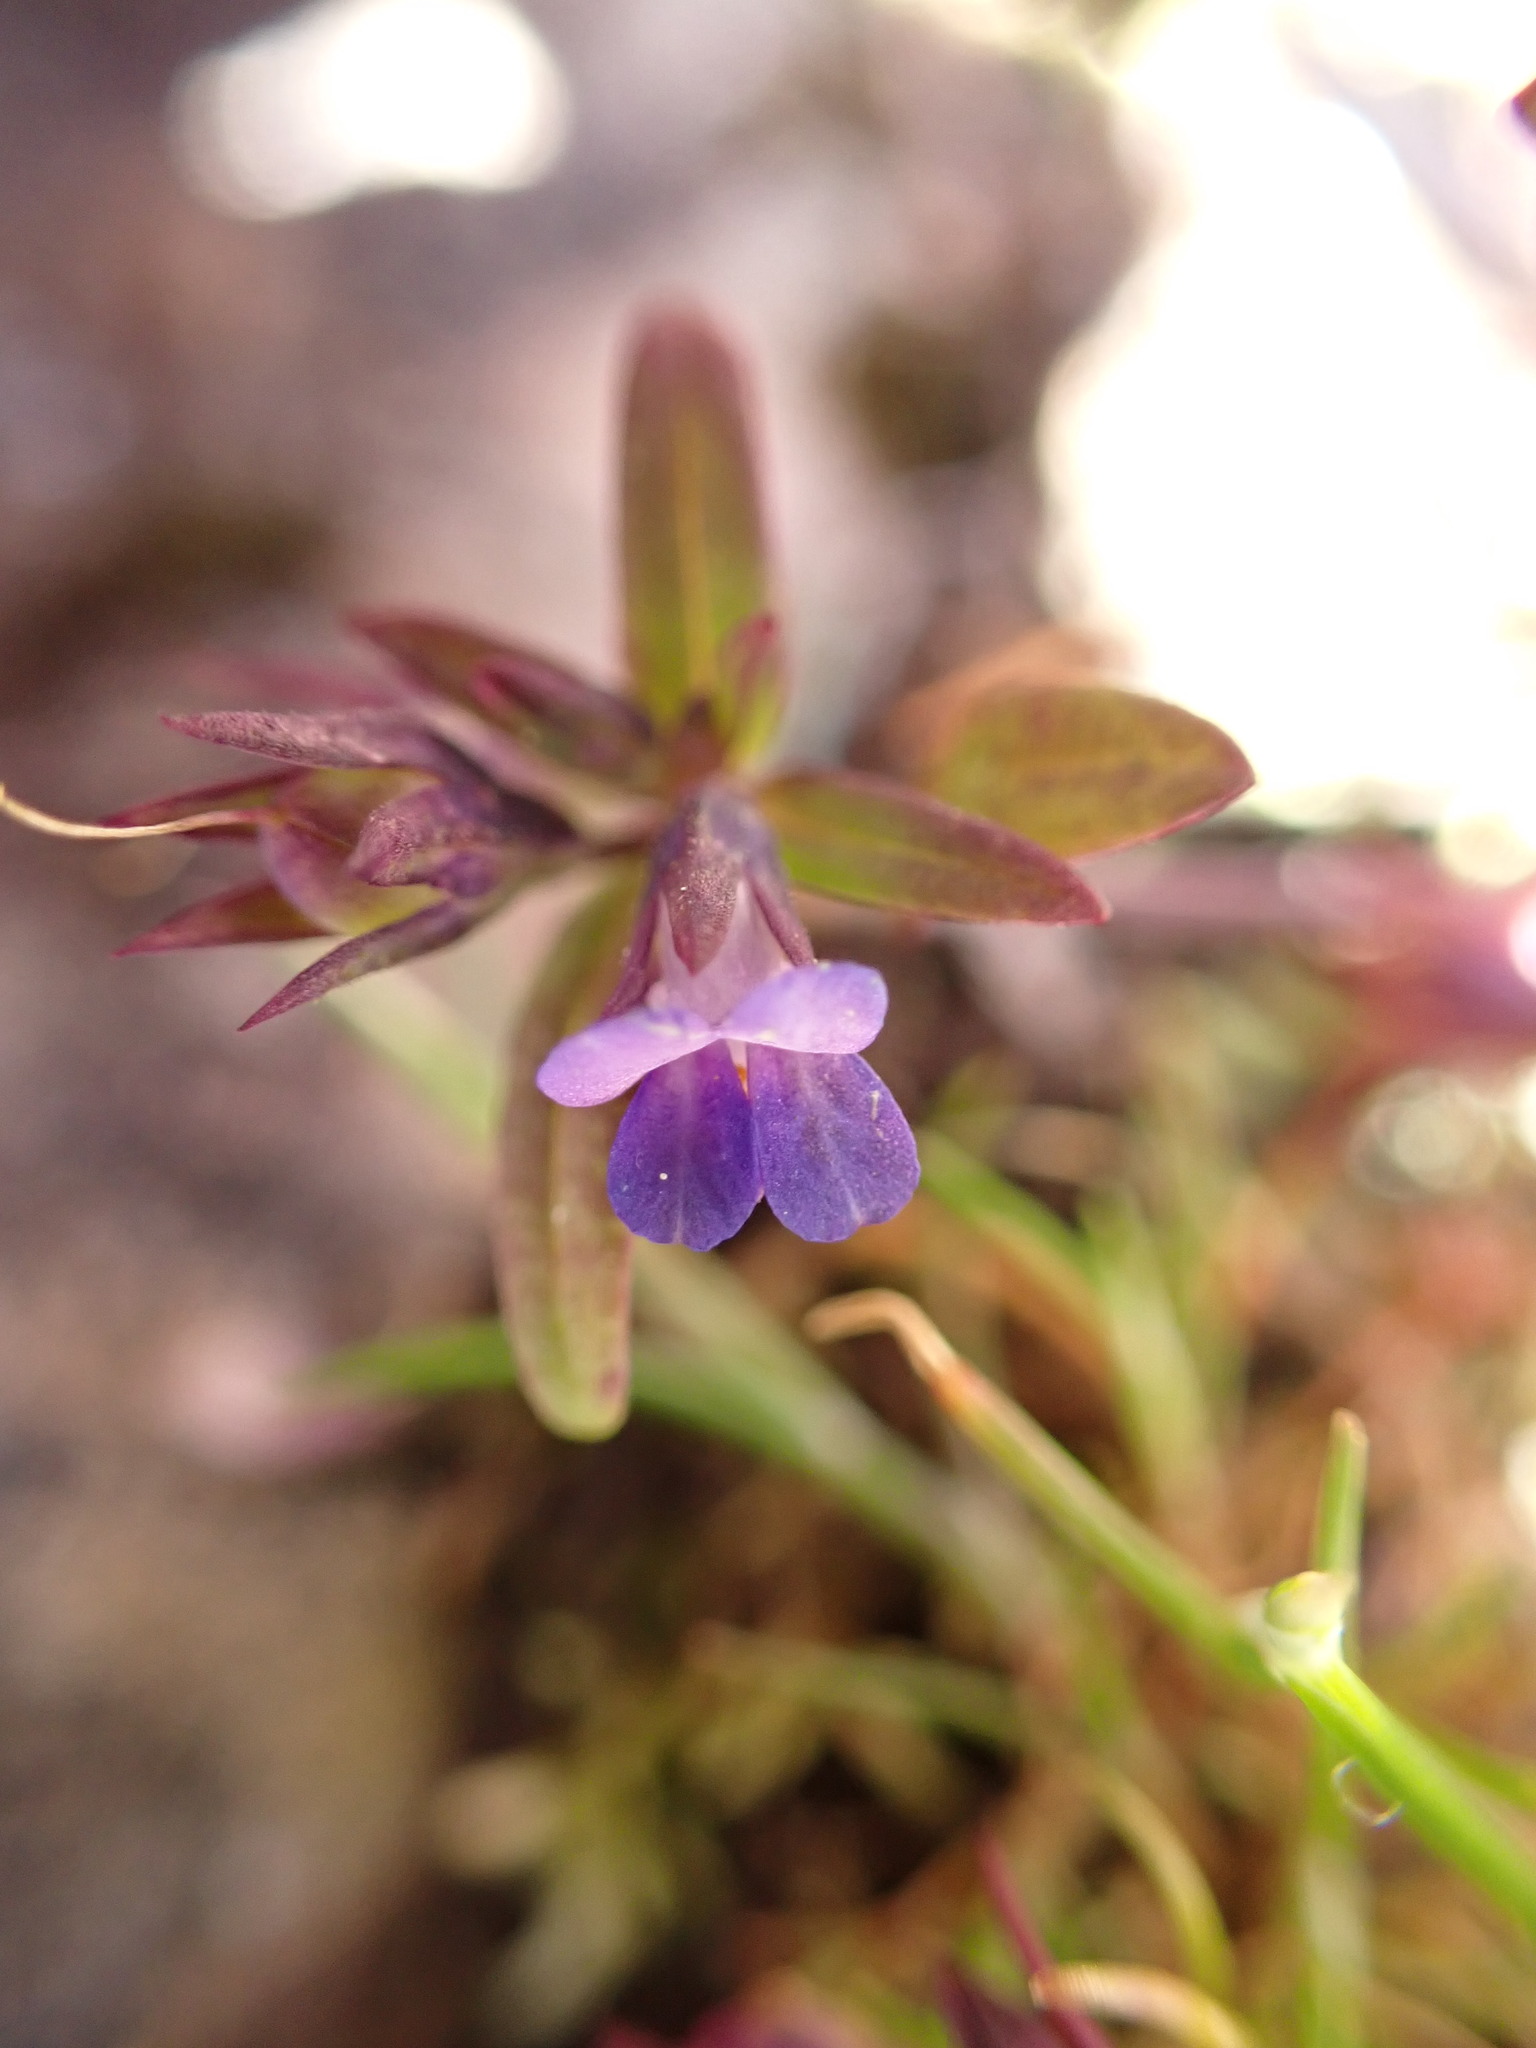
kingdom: Plantae
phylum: Tracheophyta
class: Magnoliopsida
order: Lamiales
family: Plantaginaceae
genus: Collinsia
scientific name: Collinsia parviflora
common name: Blue-lips
